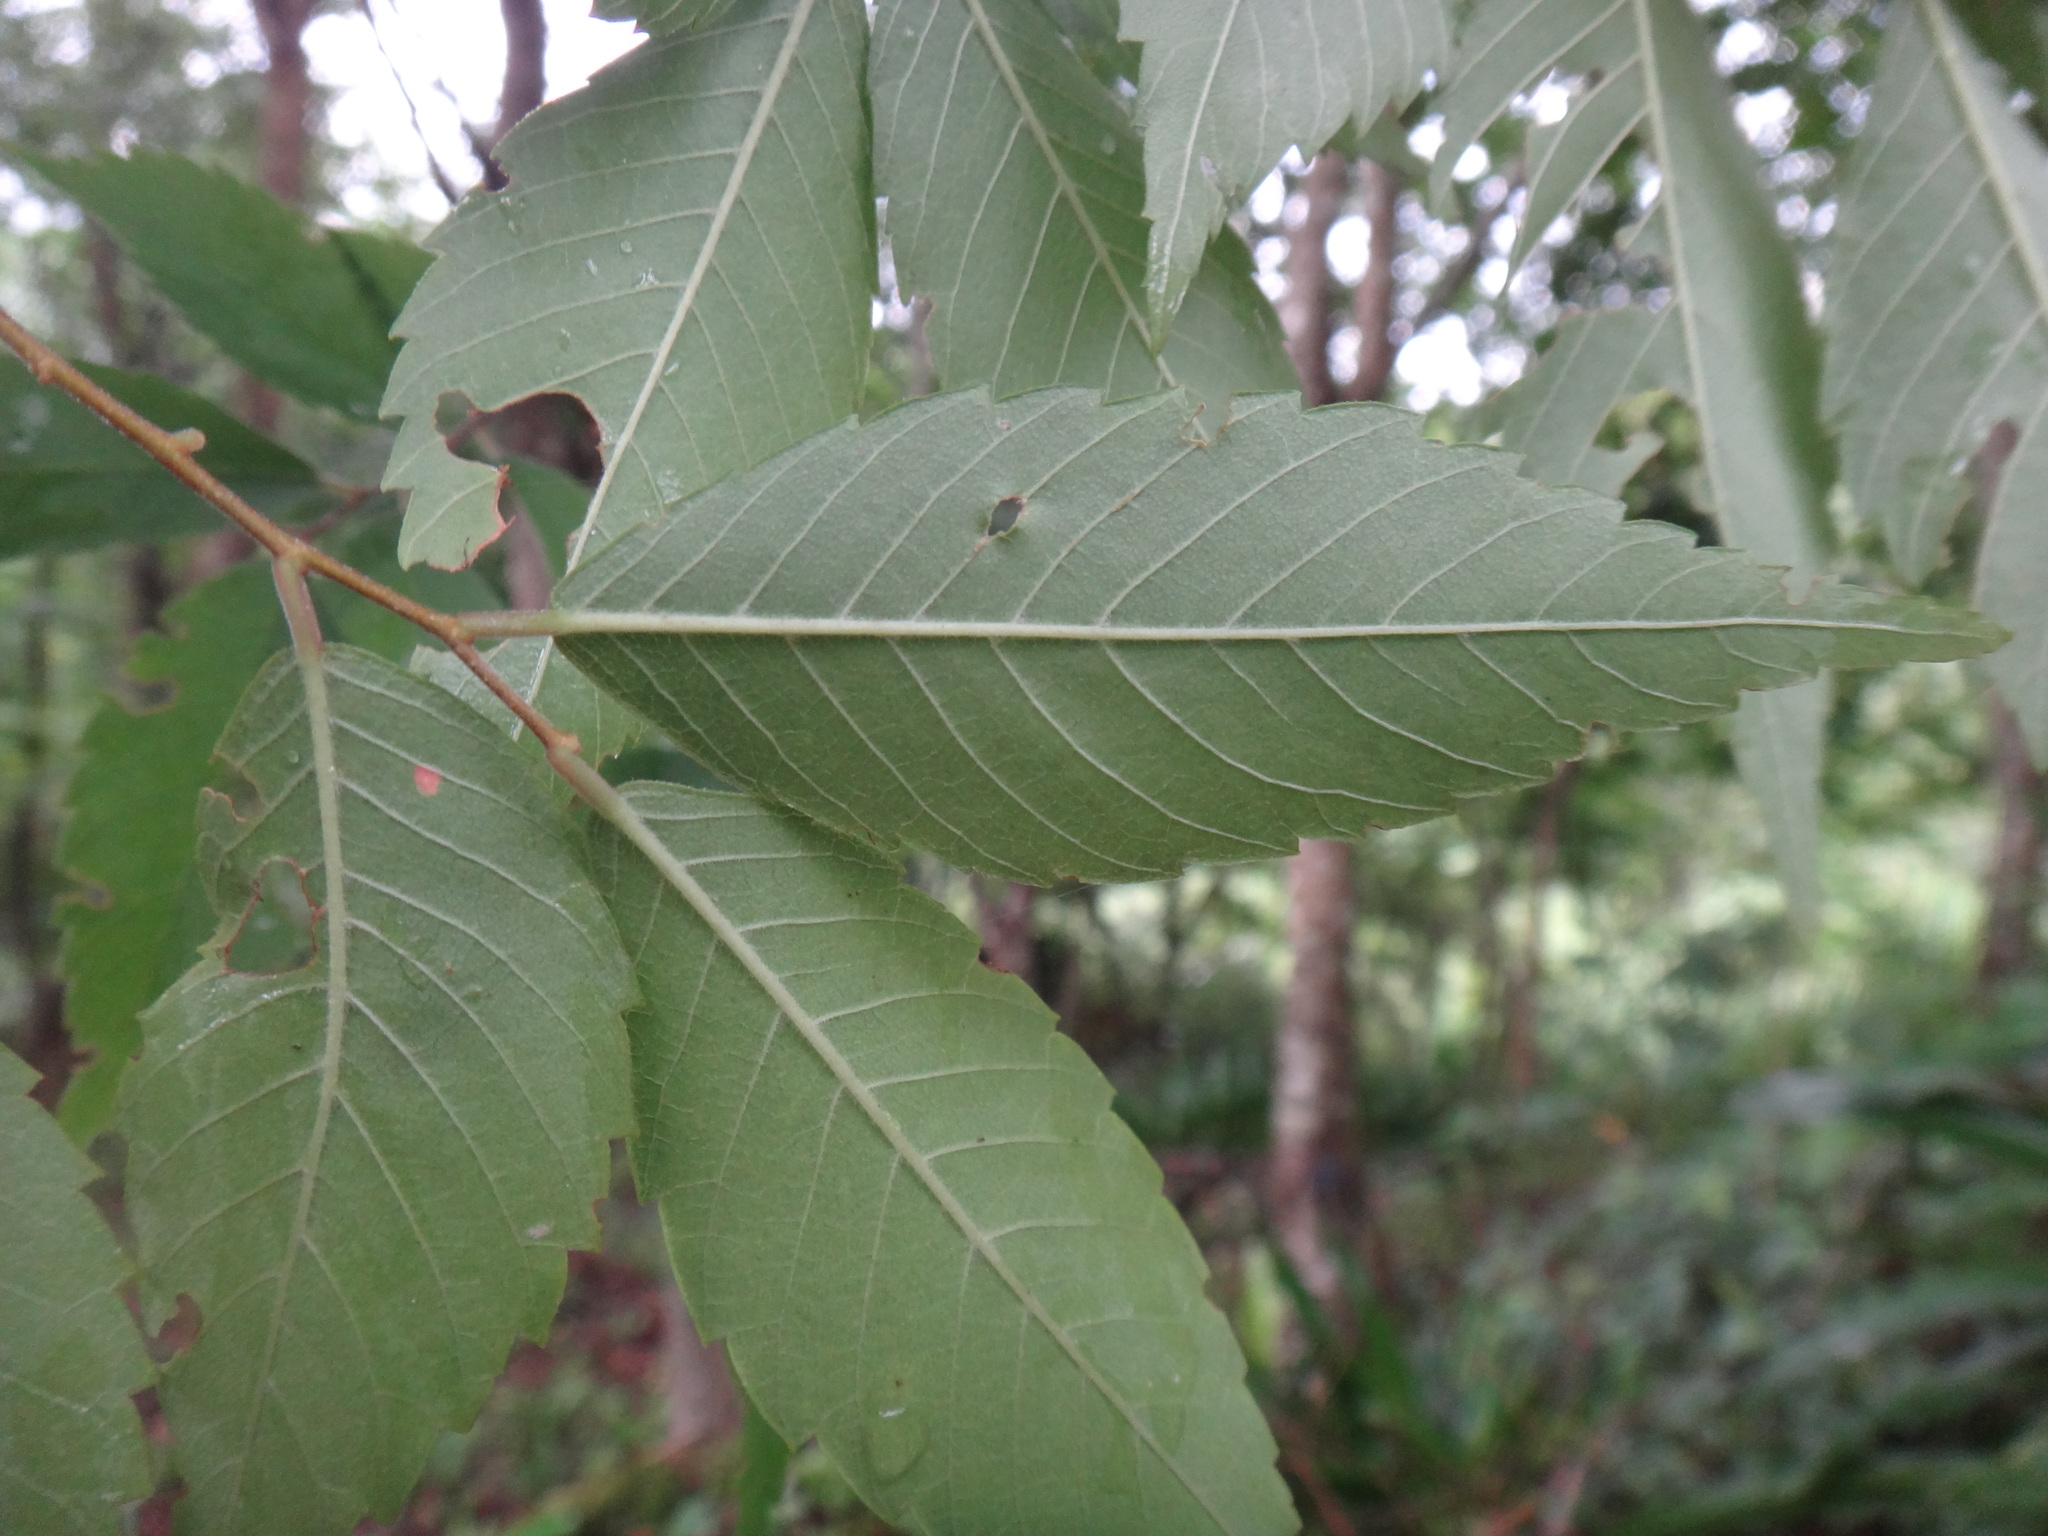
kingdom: Plantae
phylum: Tracheophyta
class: Magnoliopsida
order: Rosales
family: Ulmaceae
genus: Zelkova
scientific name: Zelkova serrata
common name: Japanese zelkova
